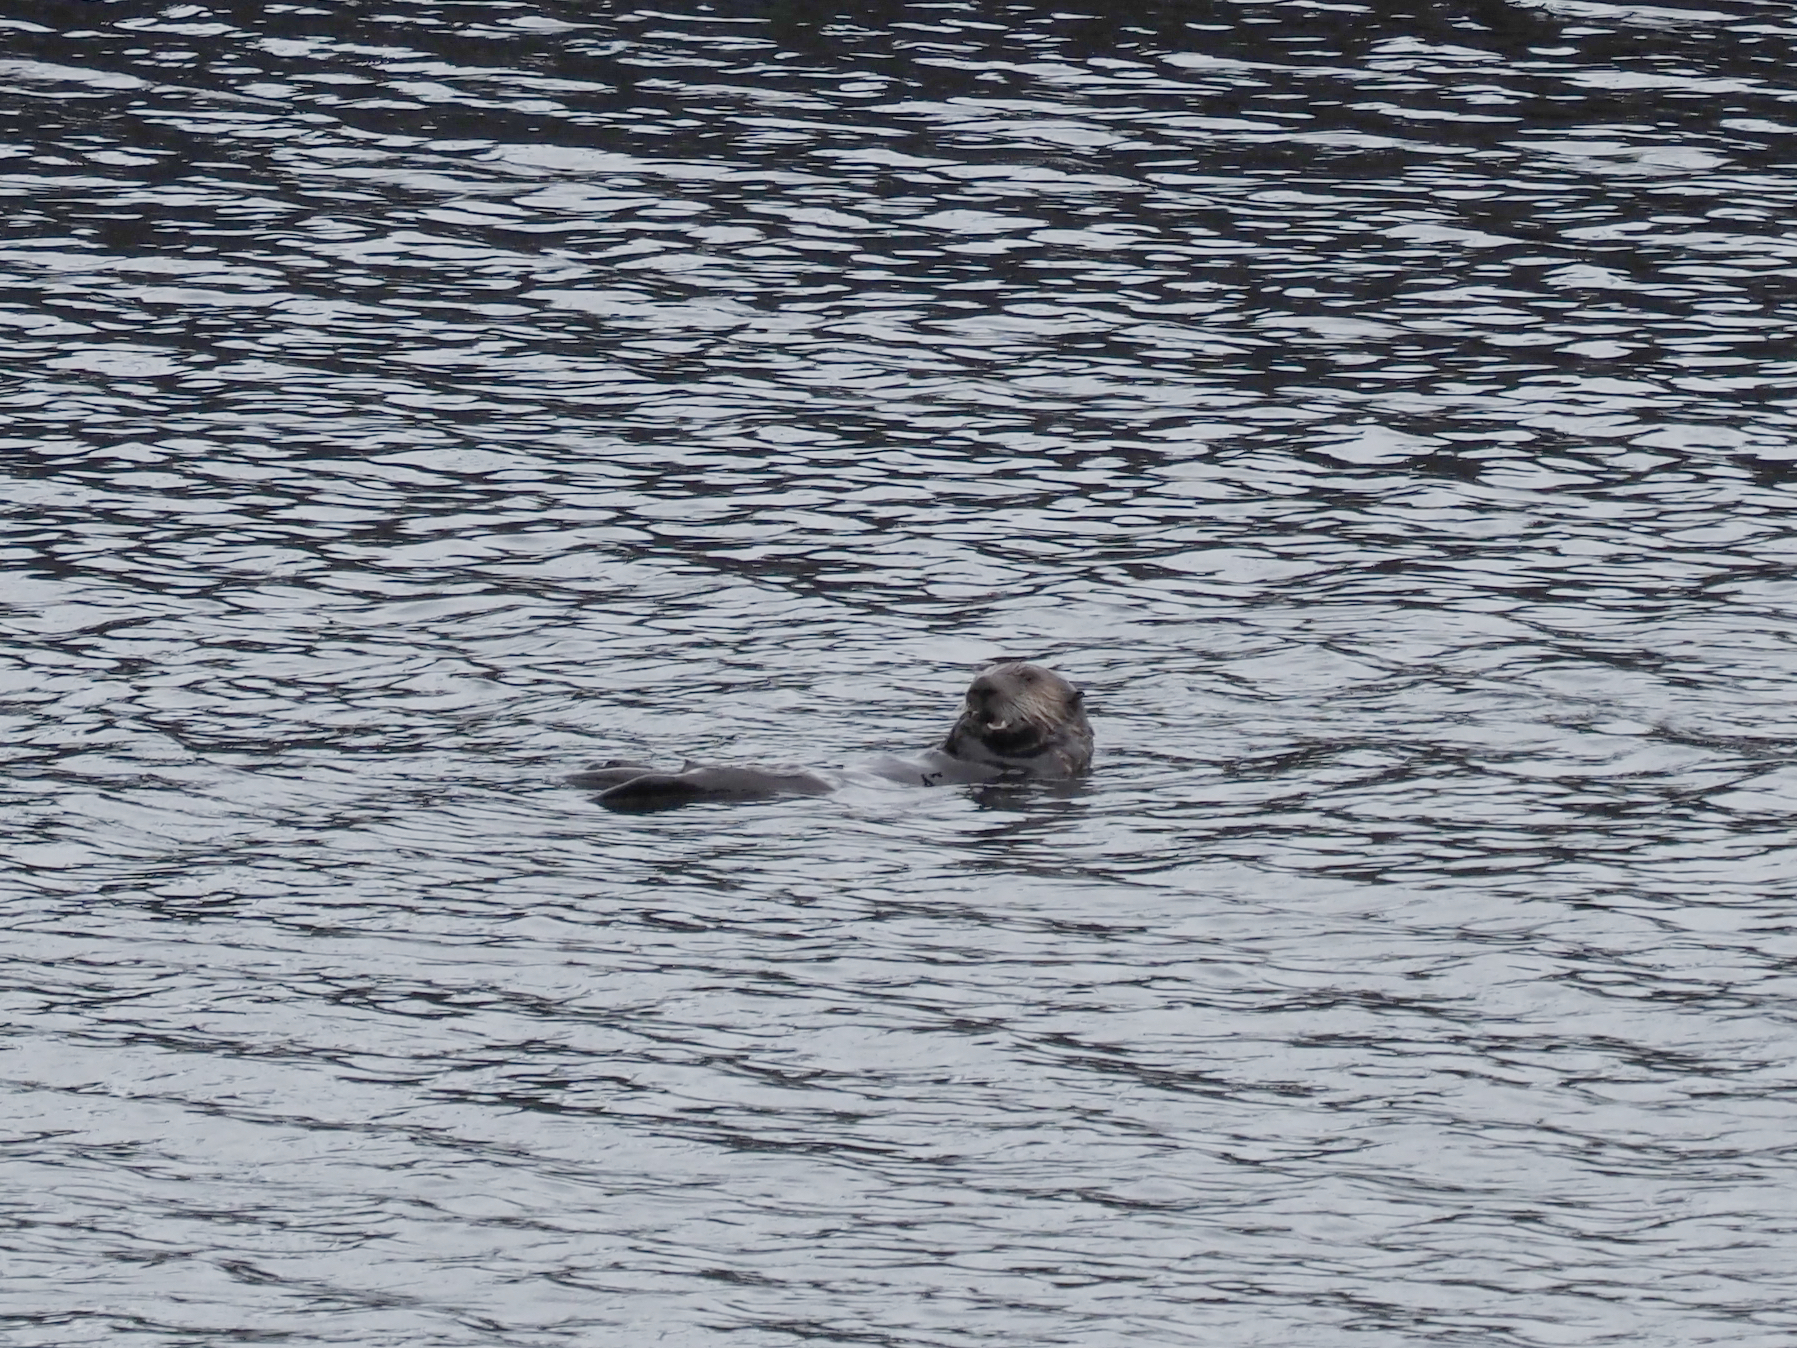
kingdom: Animalia
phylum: Chordata
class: Mammalia
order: Carnivora
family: Mustelidae
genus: Enhydra
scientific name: Enhydra lutris
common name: Sea otter
